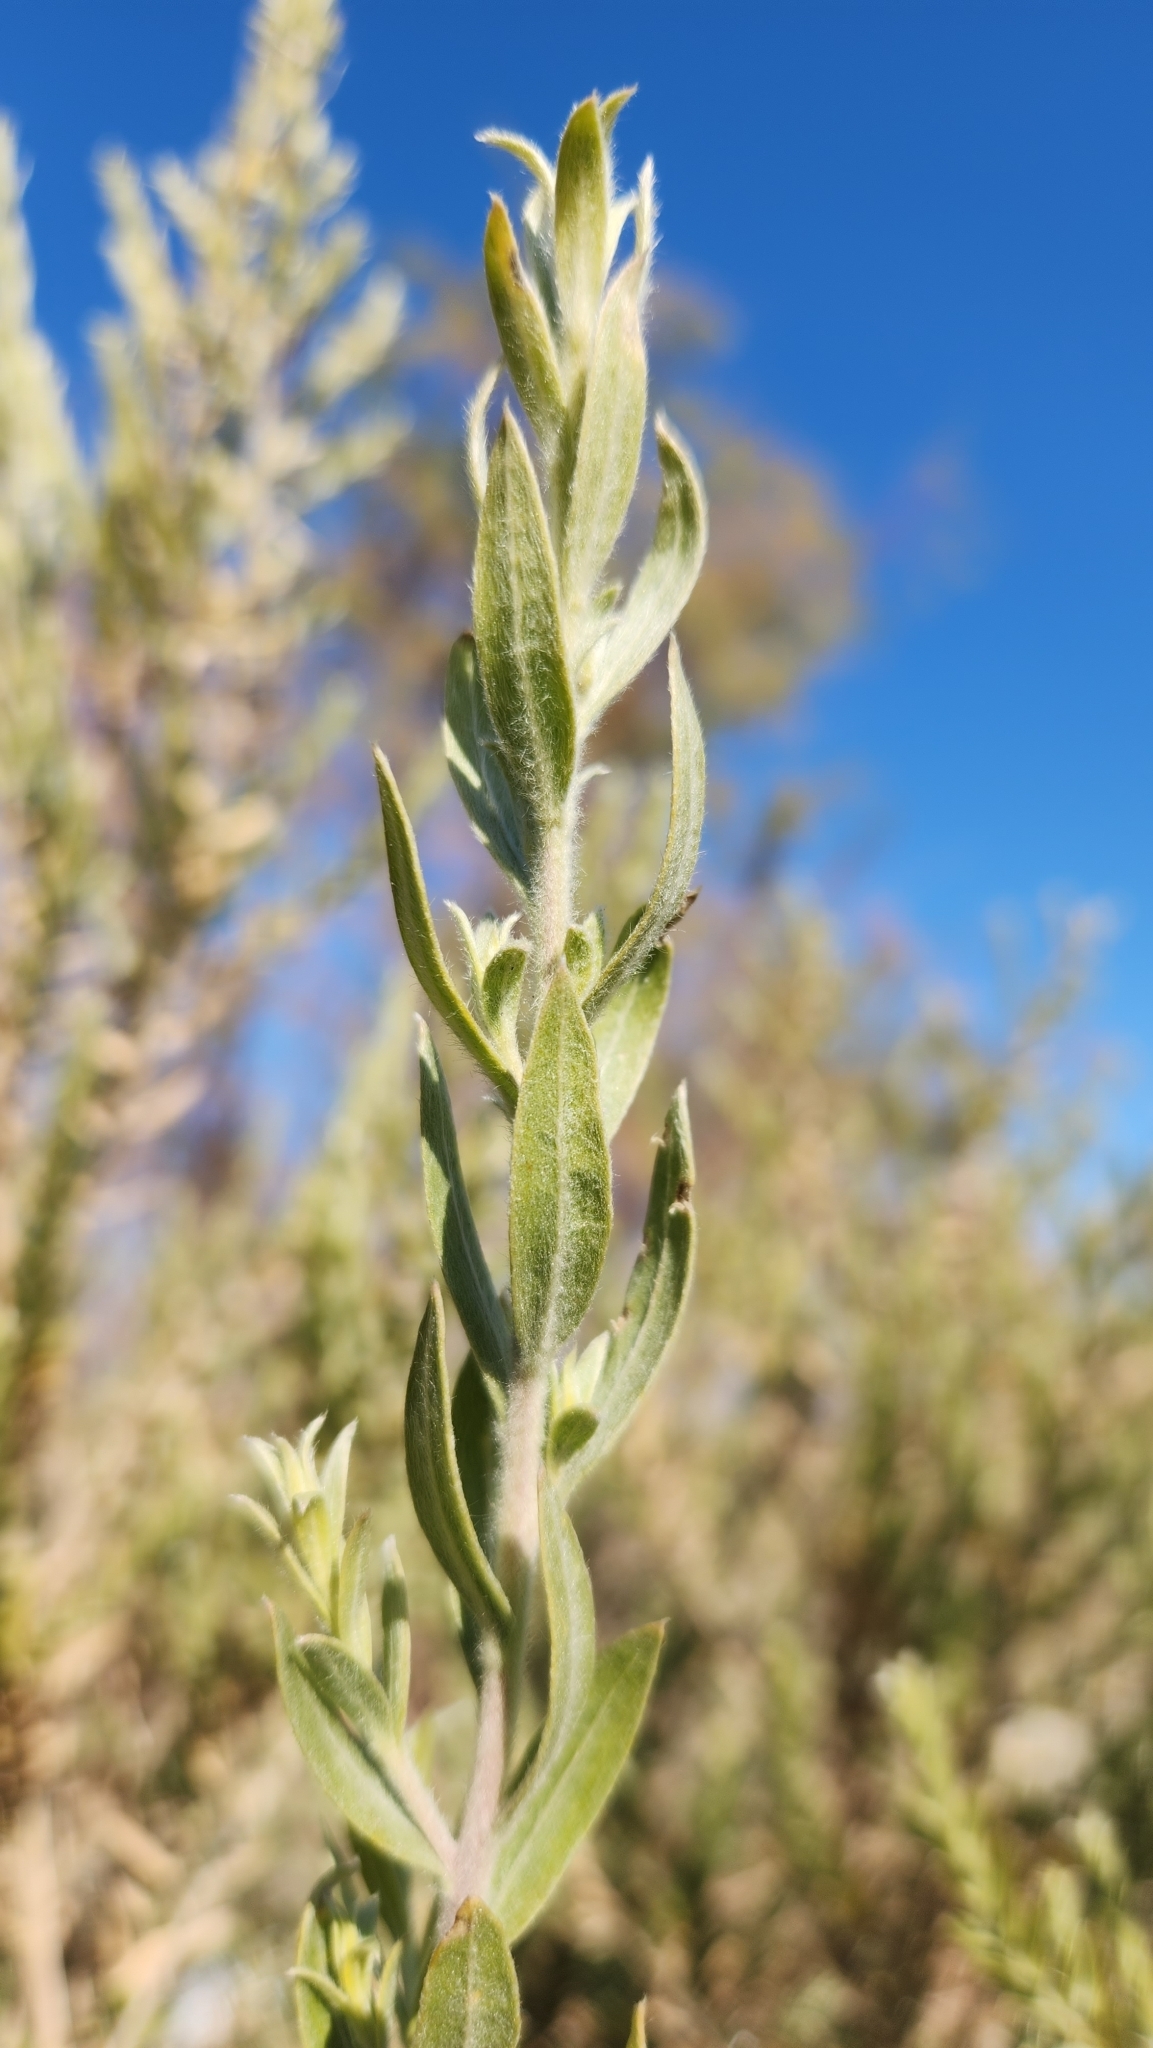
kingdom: Plantae
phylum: Tracheophyta
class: Magnoliopsida
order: Asterales
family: Asteraceae
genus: Pluchea
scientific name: Pluchea sericea
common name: Arrow-weed
